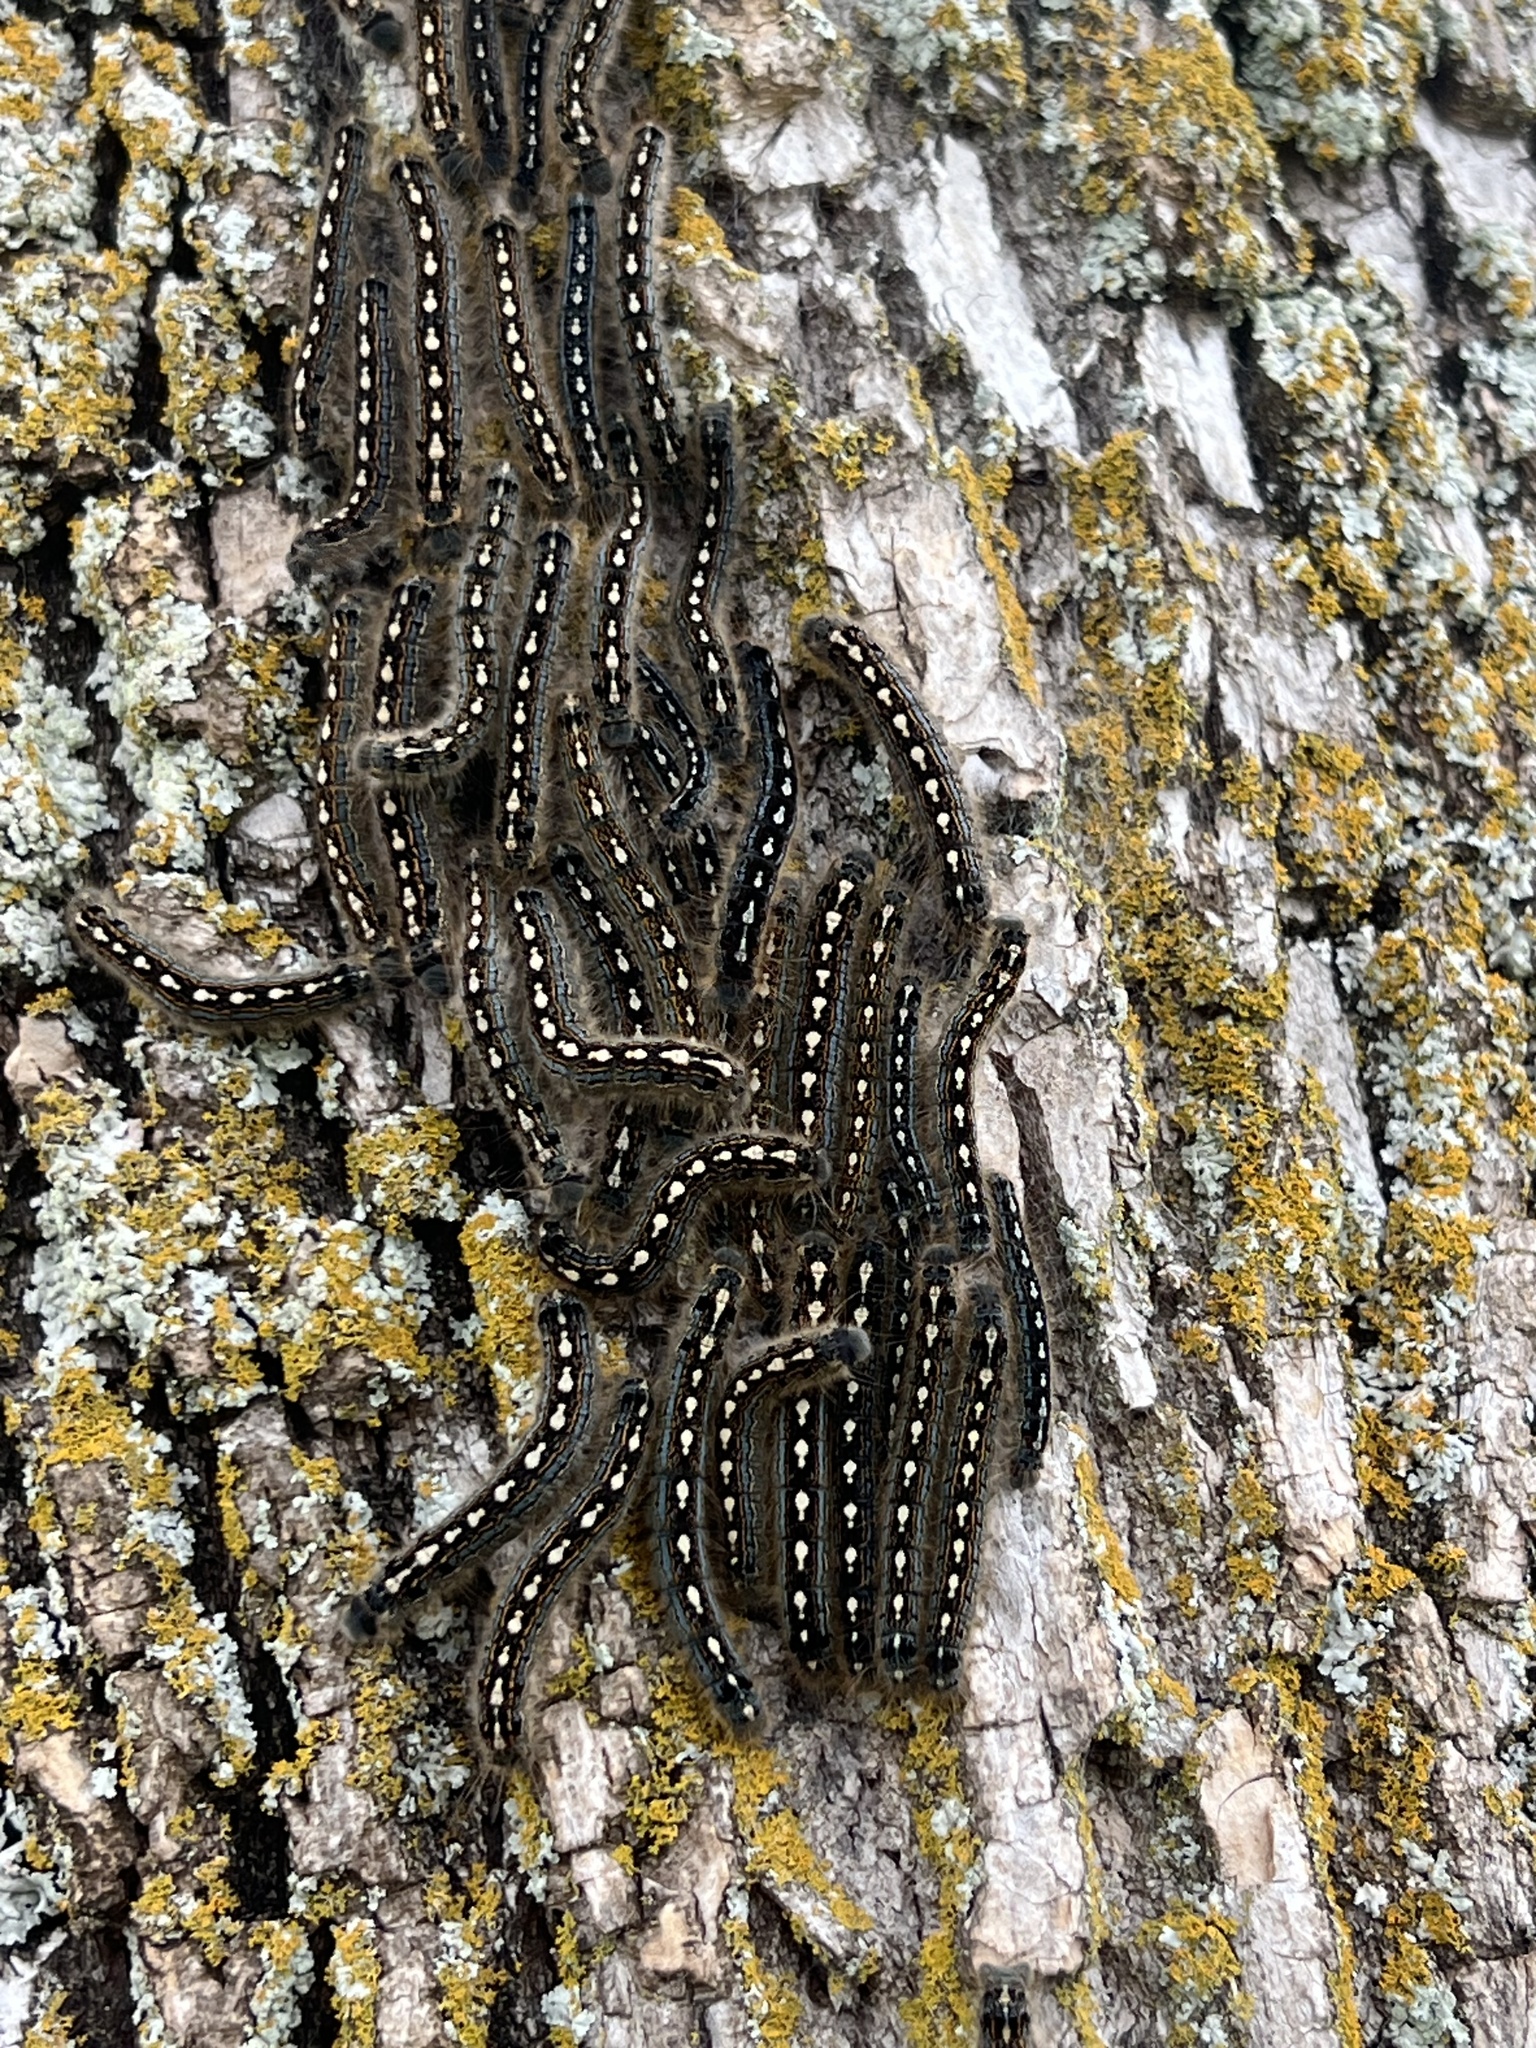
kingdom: Animalia
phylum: Arthropoda
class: Insecta
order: Lepidoptera
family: Lasiocampidae
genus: Malacosoma
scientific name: Malacosoma disstria
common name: Forest tent caterpillar
